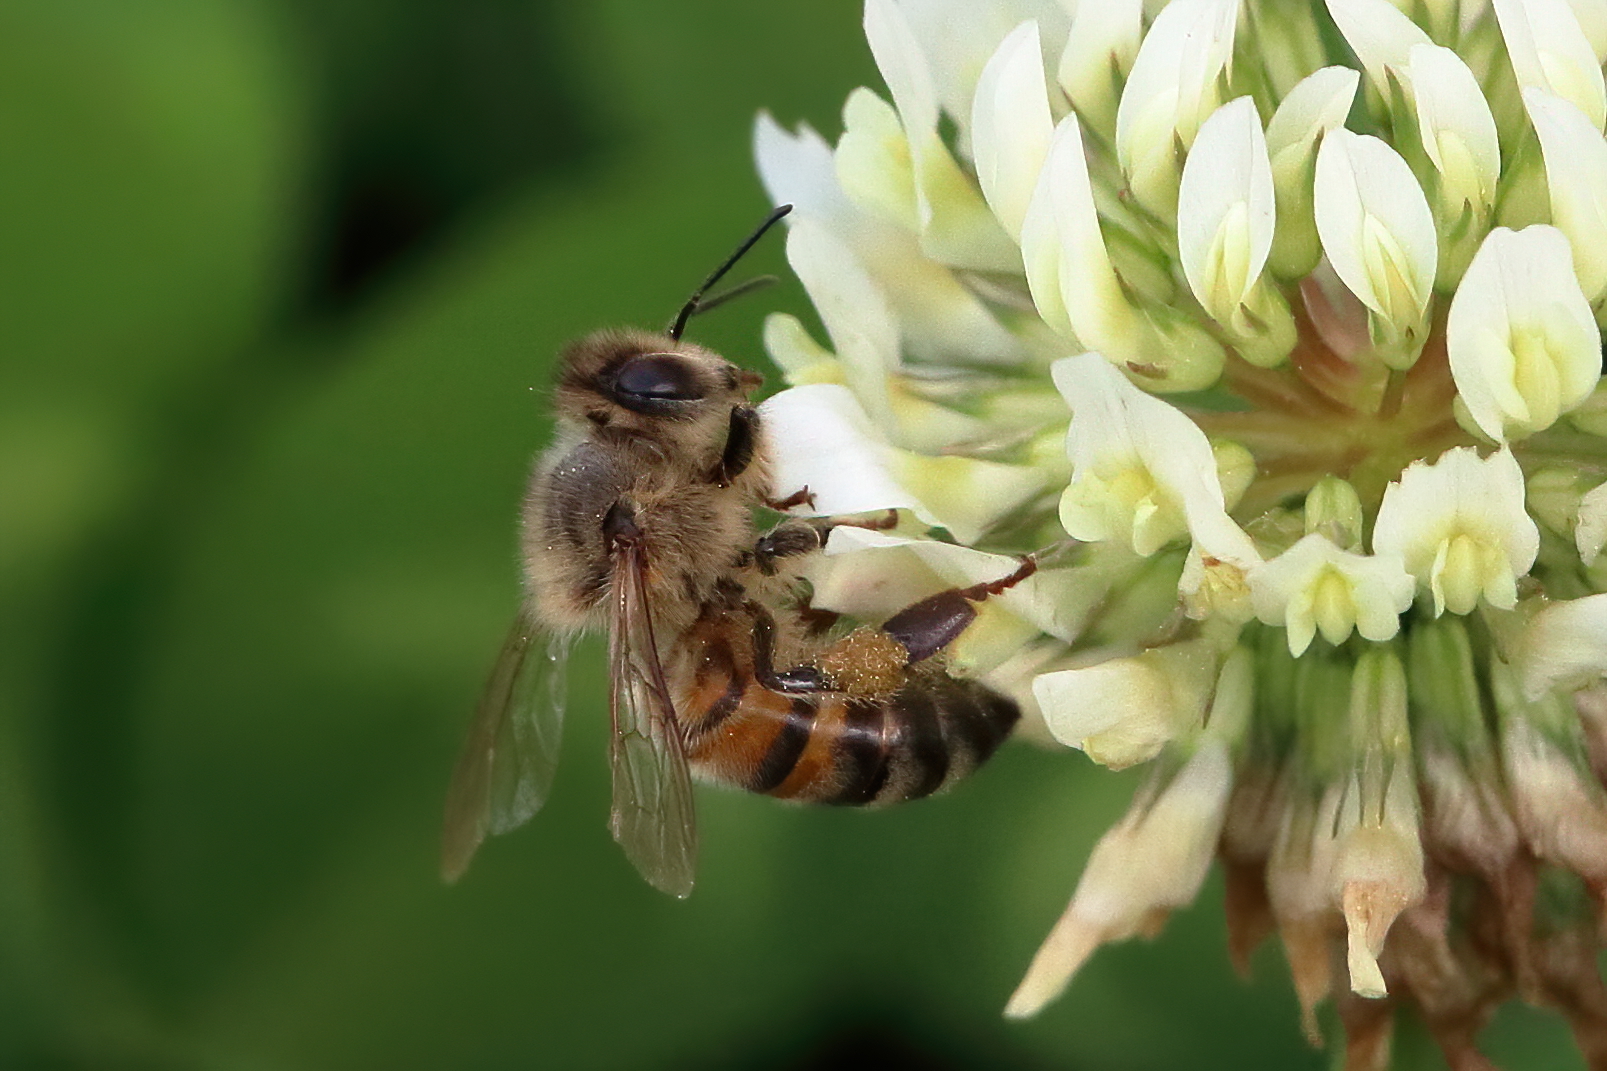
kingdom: Animalia
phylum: Arthropoda
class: Insecta
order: Hymenoptera
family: Apidae
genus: Apis
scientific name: Apis mellifera
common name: Honey bee
